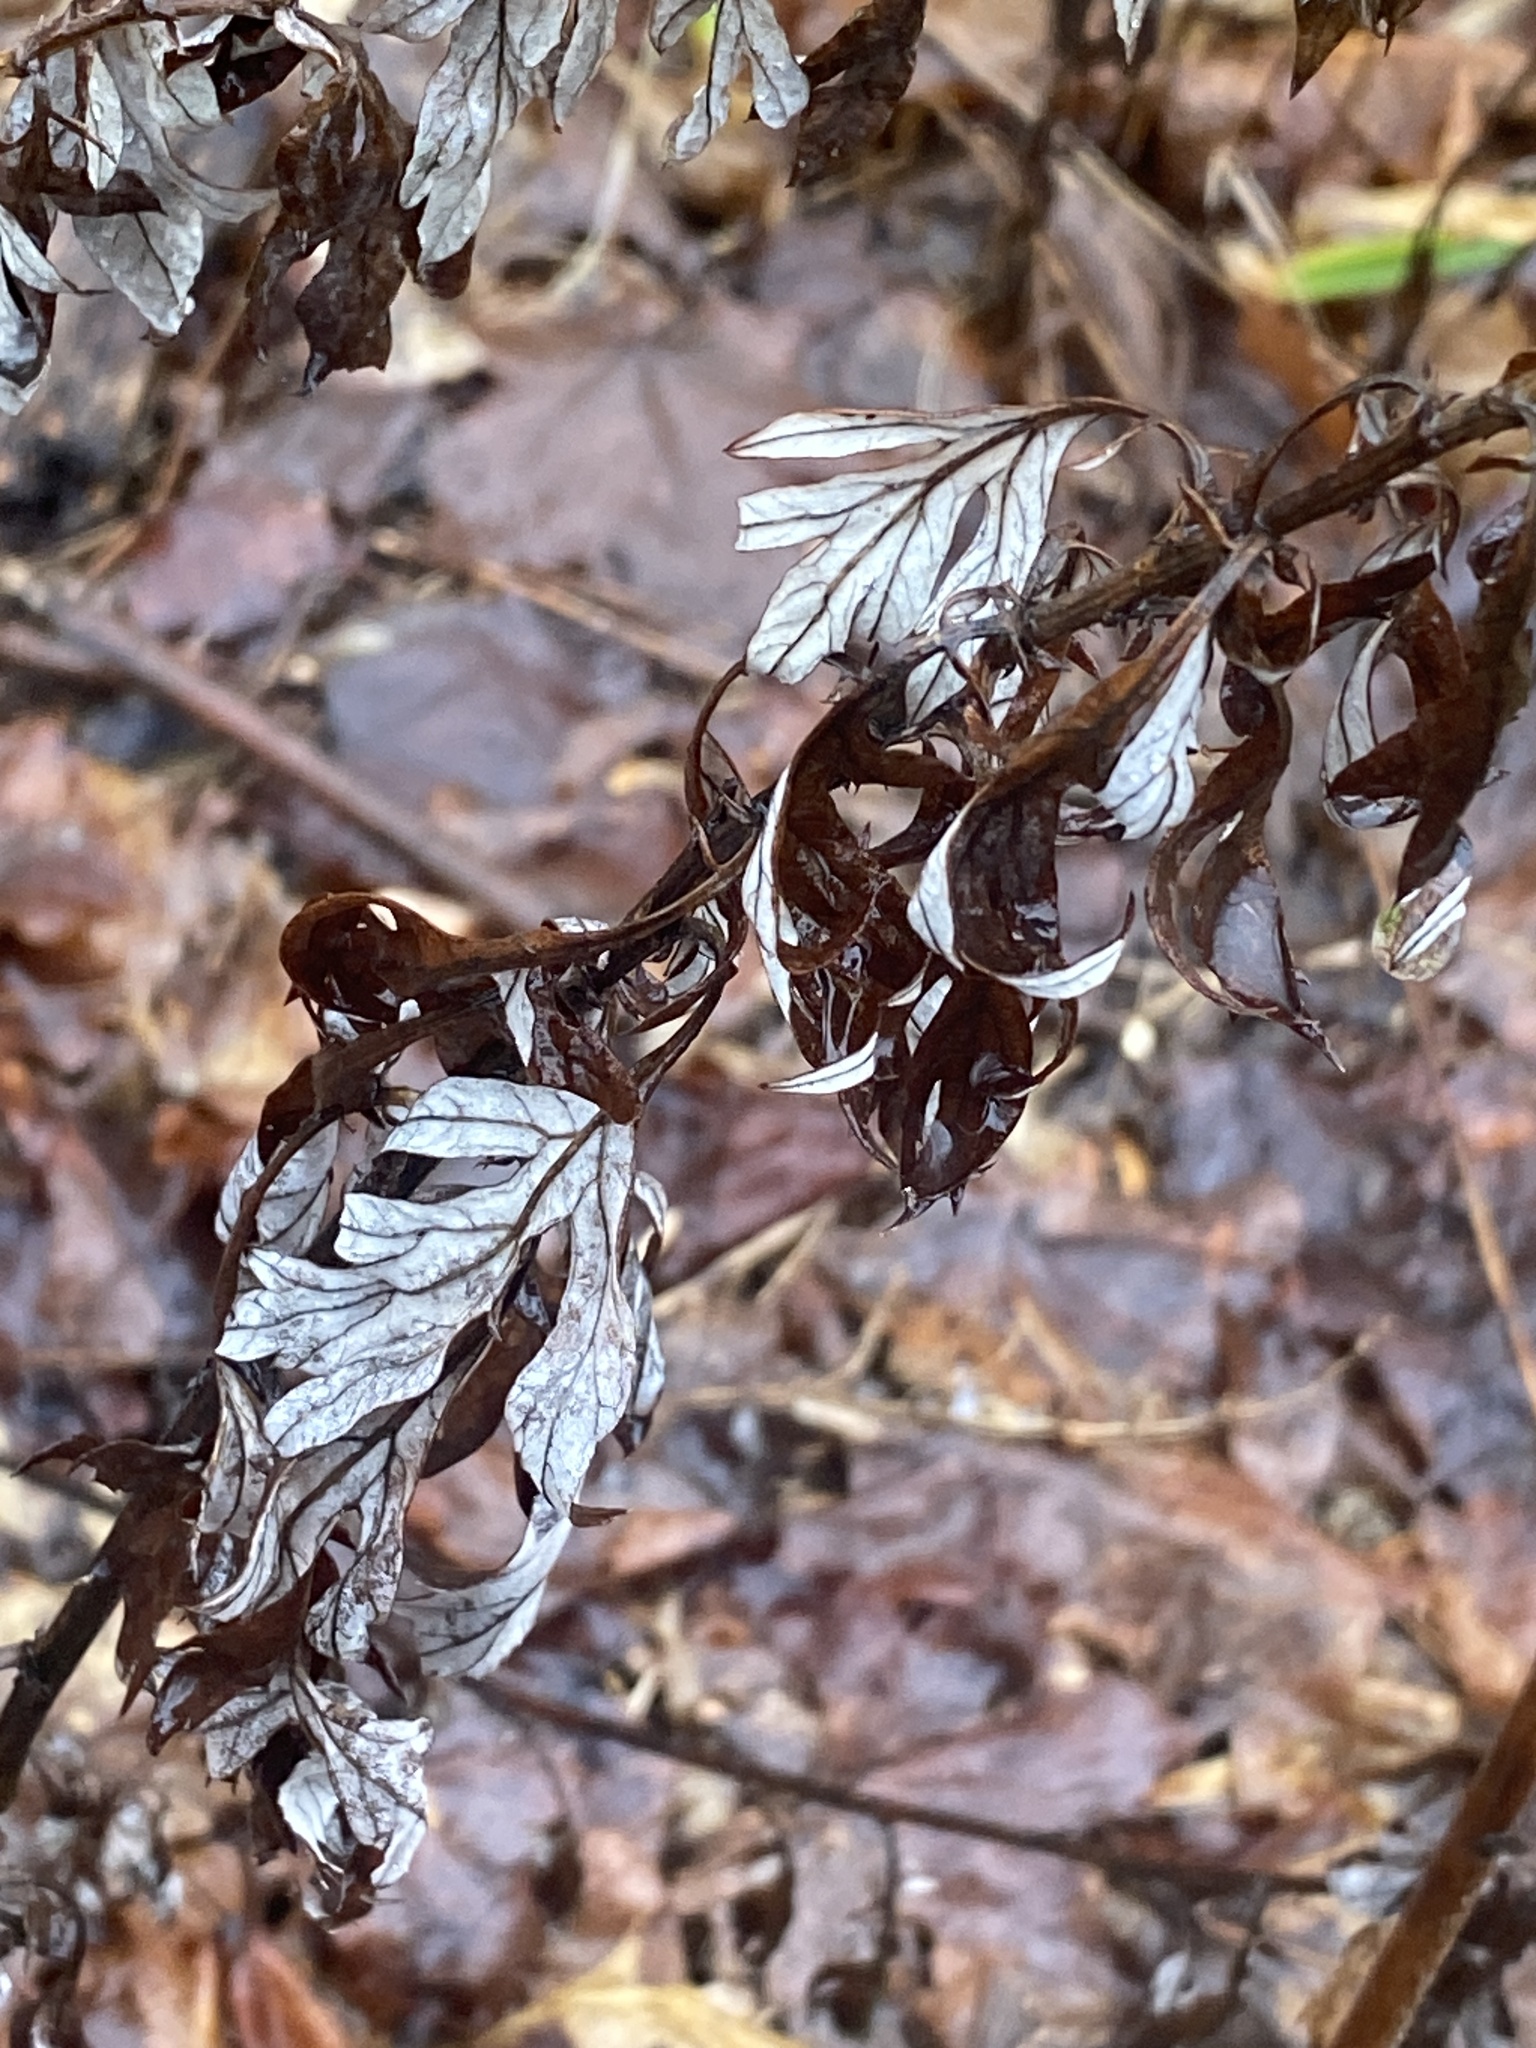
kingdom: Plantae
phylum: Tracheophyta
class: Magnoliopsida
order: Asterales
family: Asteraceae
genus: Artemisia
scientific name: Artemisia vulgaris
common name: Mugwort
